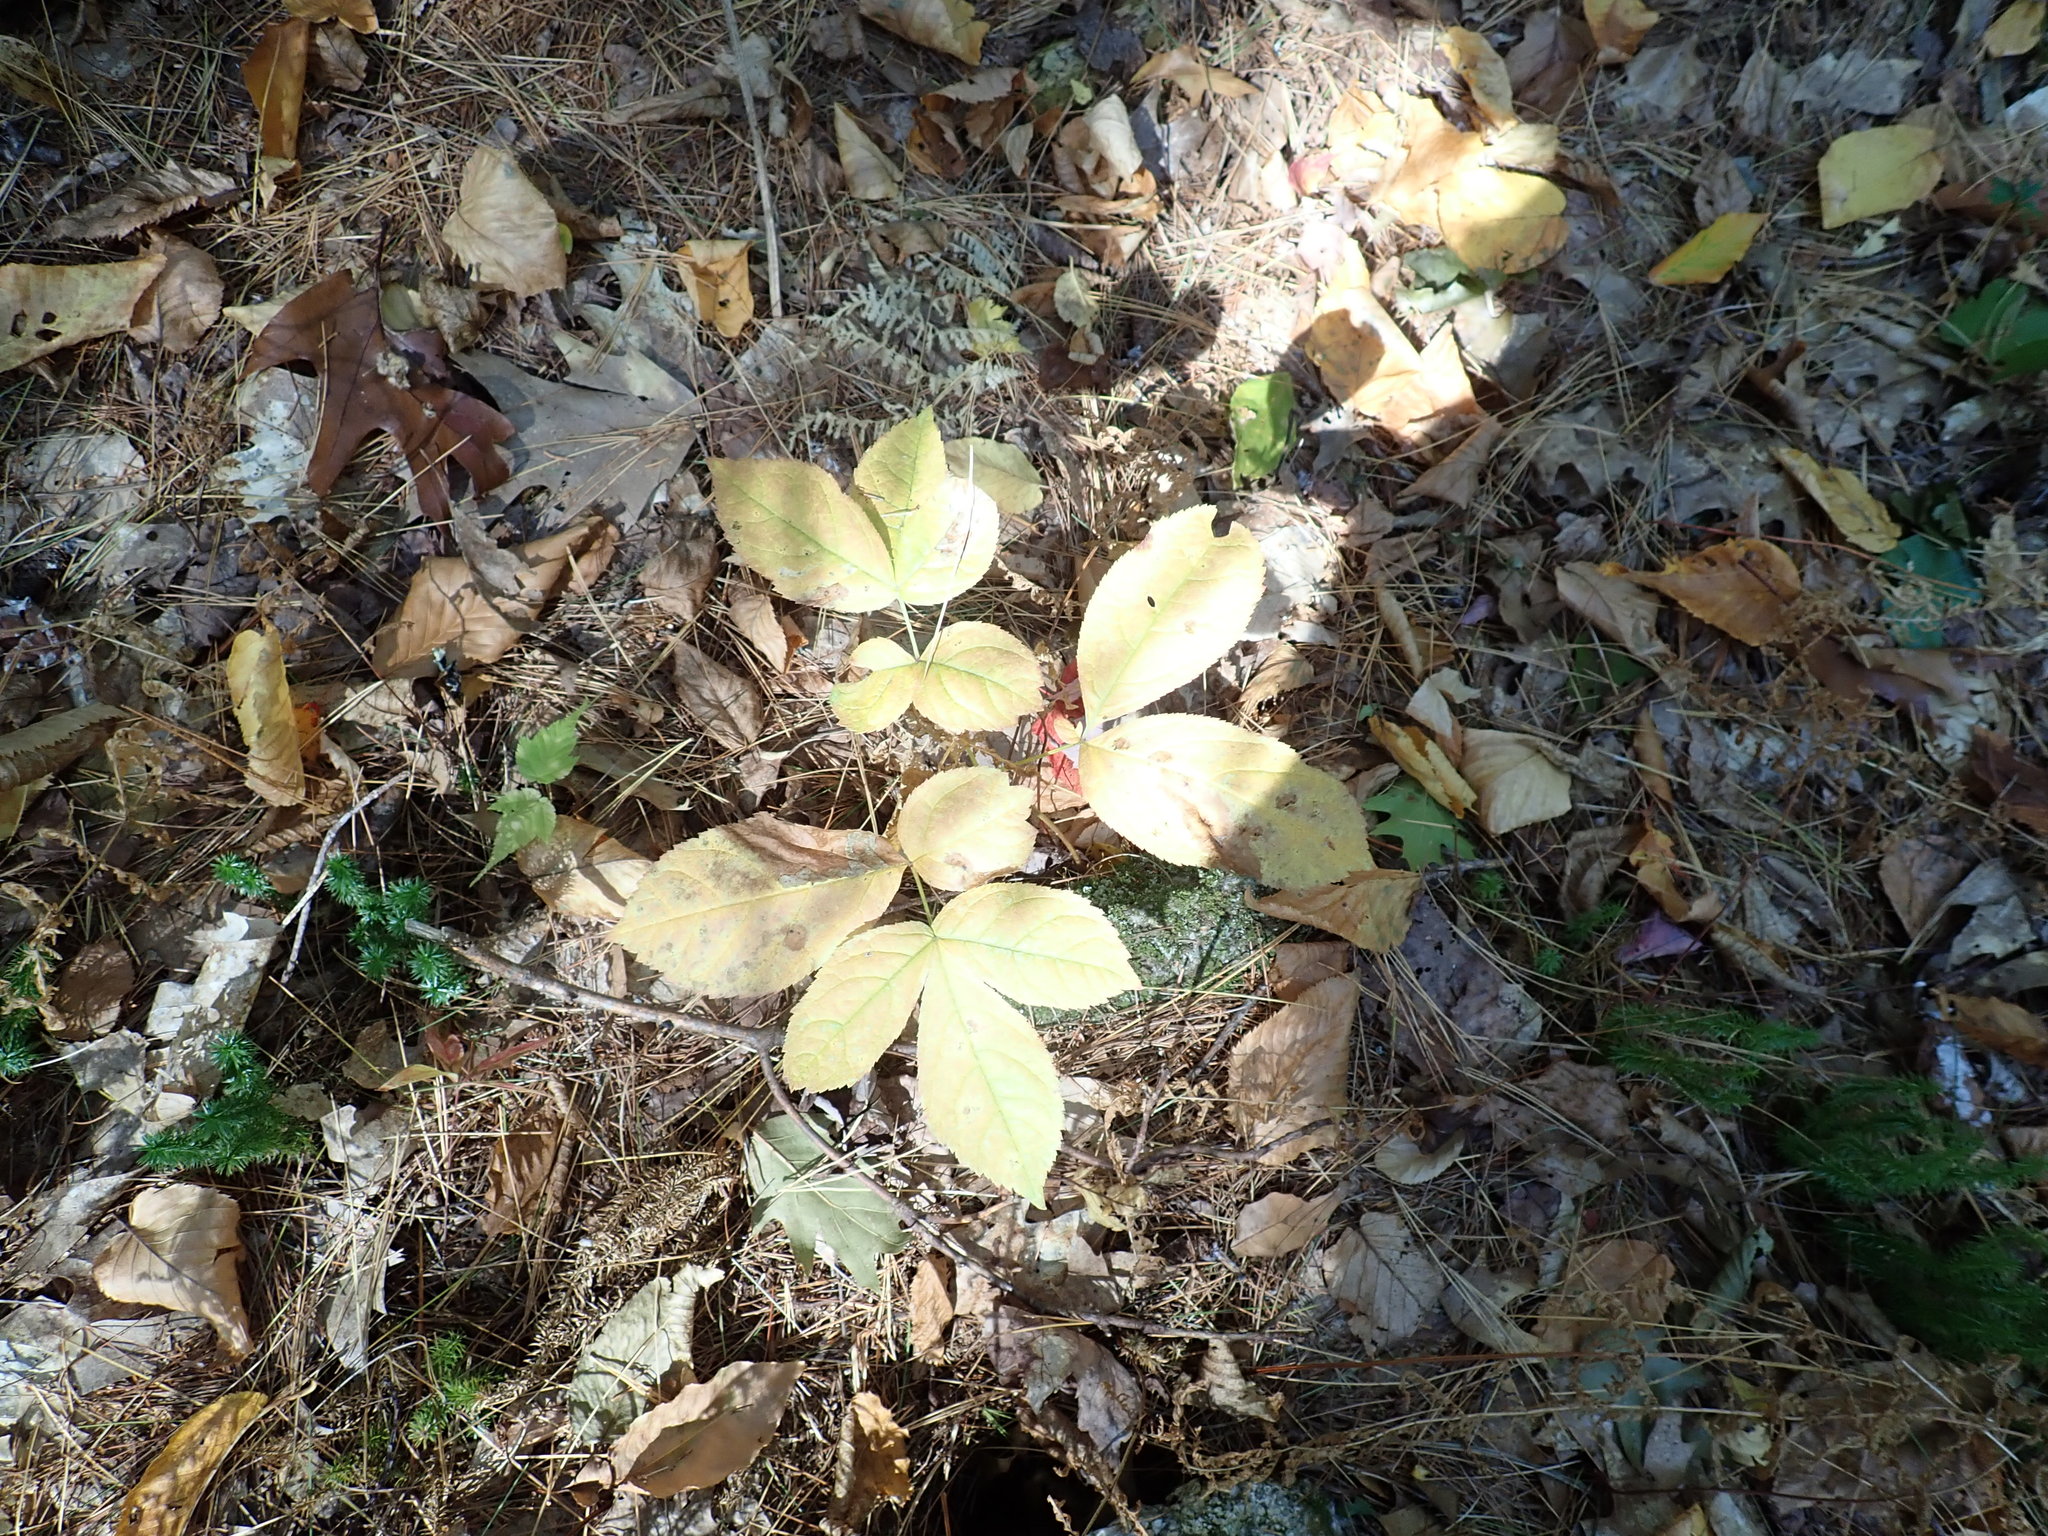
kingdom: Plantae
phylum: Tracheophyta
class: Magnoliopsida
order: Apiales
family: Araliaceae
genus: Aralia
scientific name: Aralia nudicaulis
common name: Wild sarsaparilla
